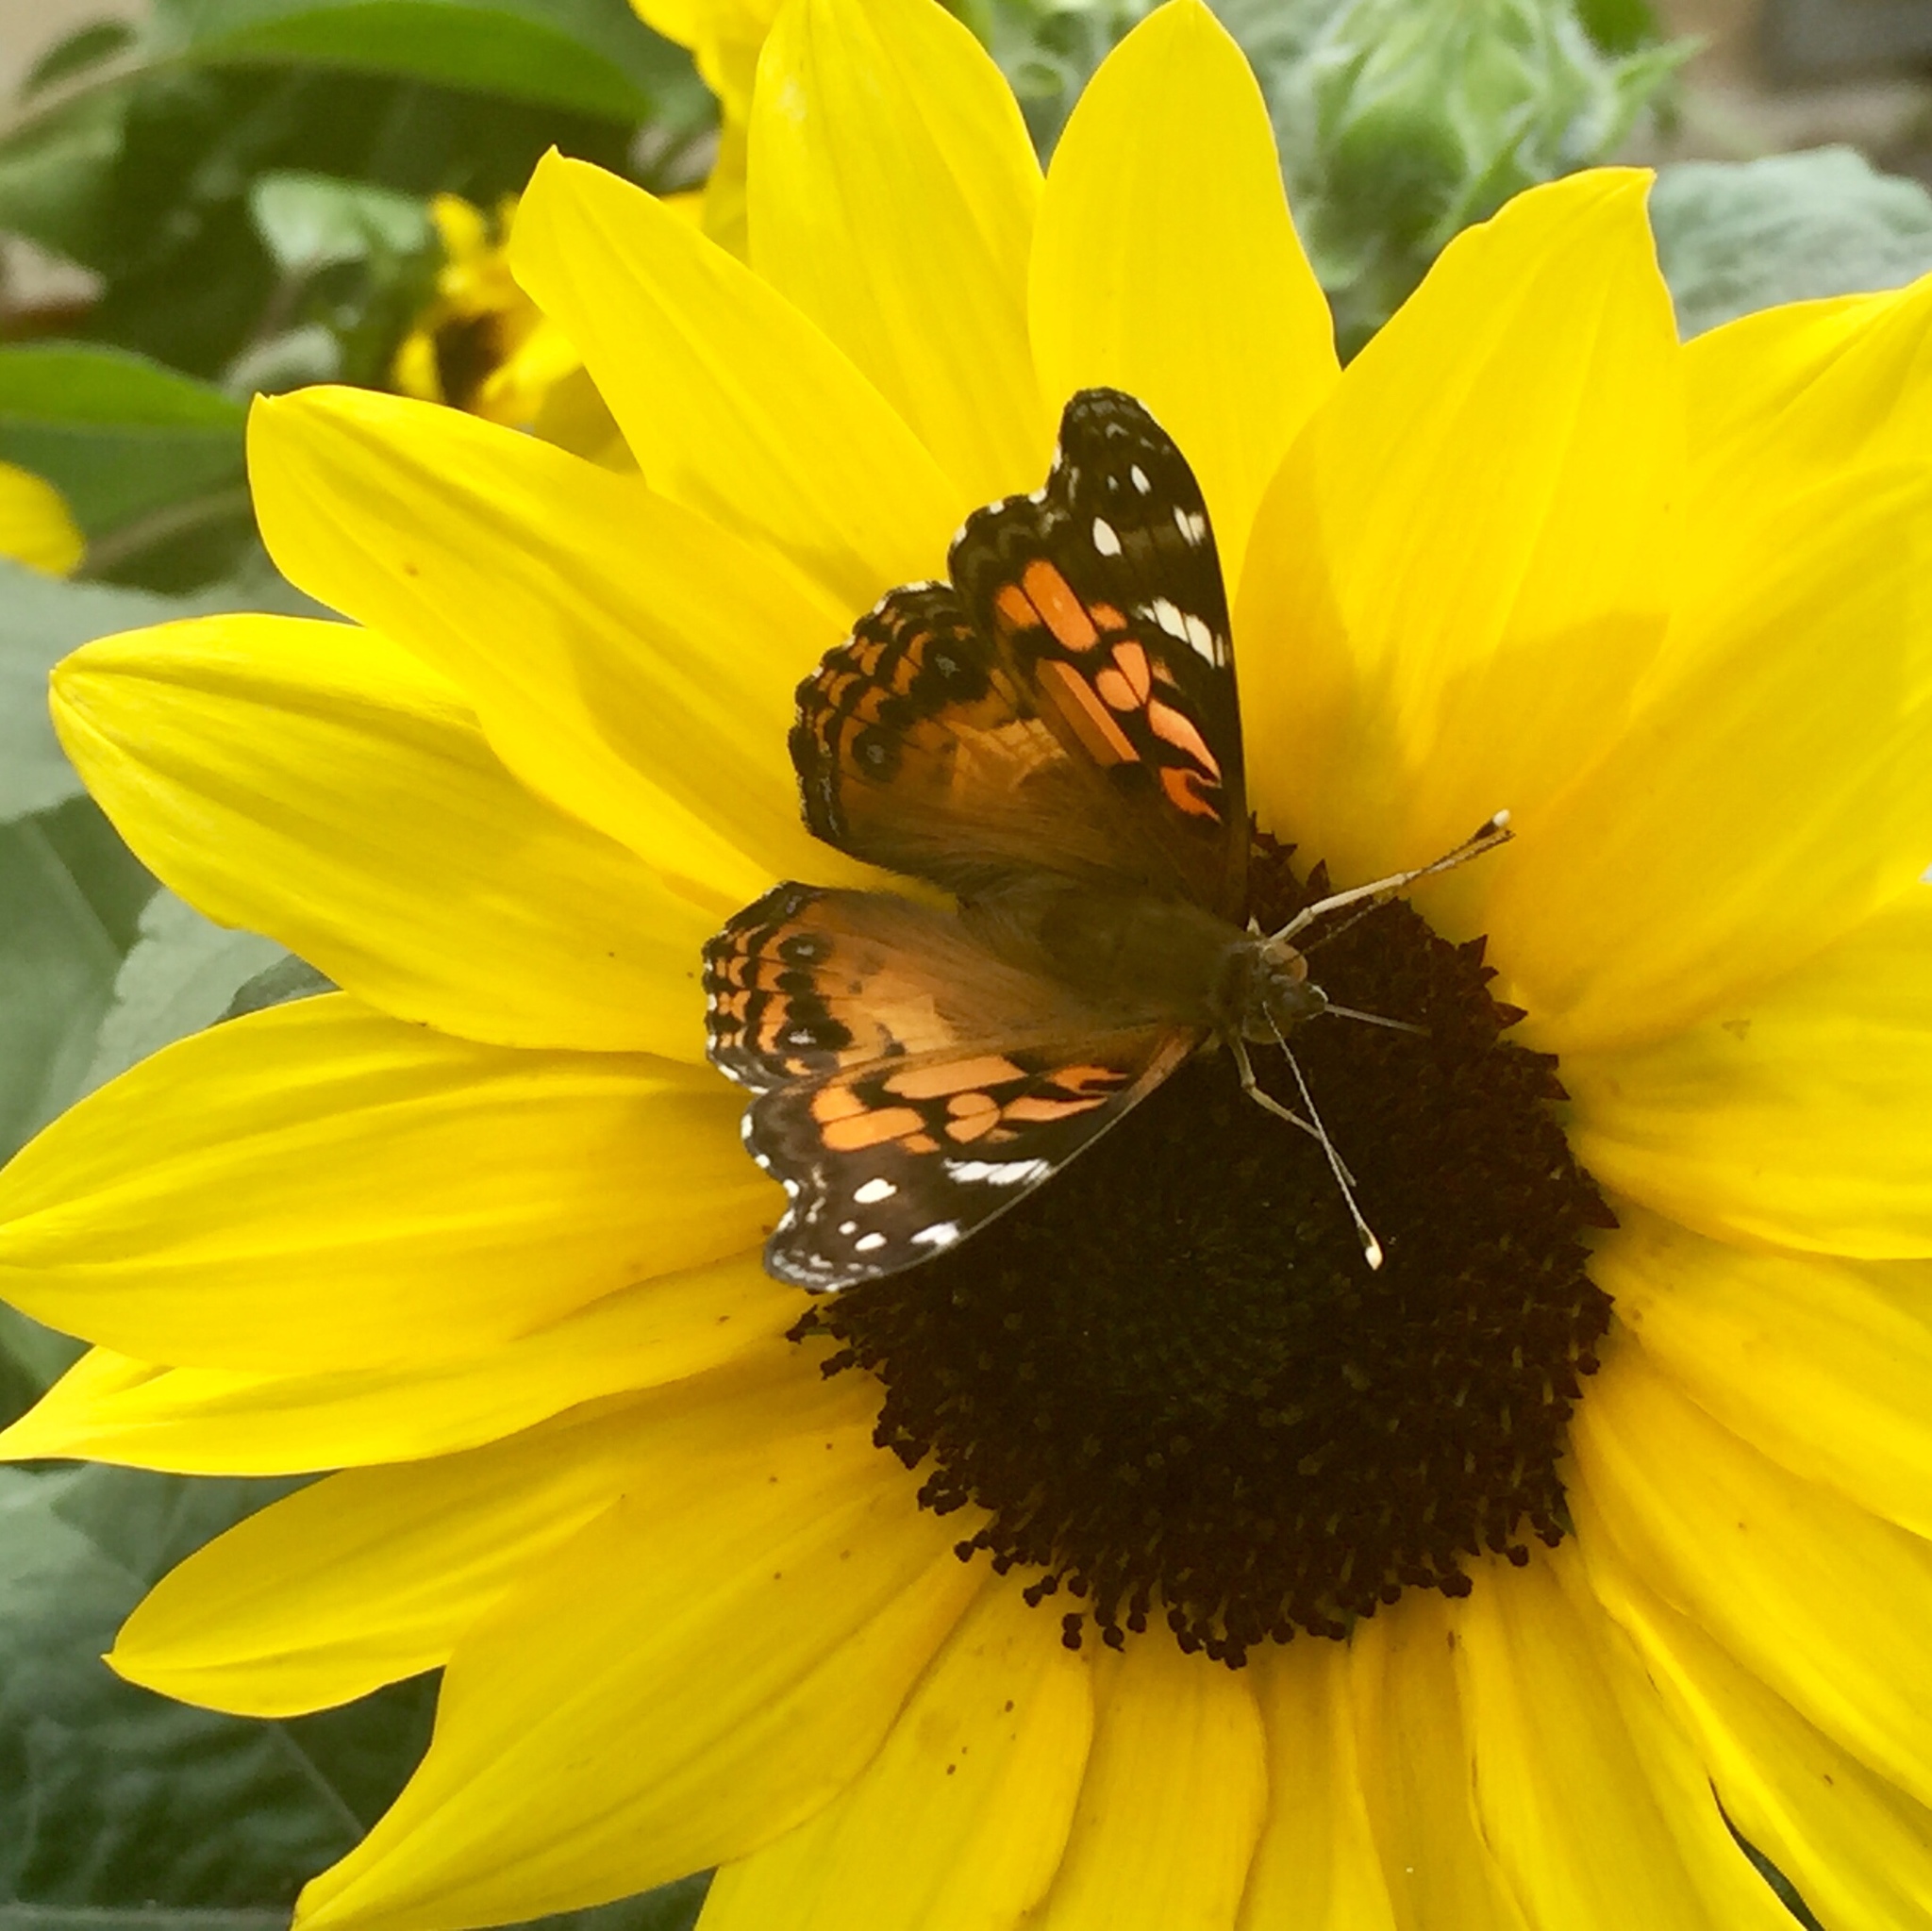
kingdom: Animalia
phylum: Arthropoda
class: Insecta
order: Lepidoptera
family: Nymphalidae
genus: Vanessa
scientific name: Vanessa virginiensis
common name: American lady
